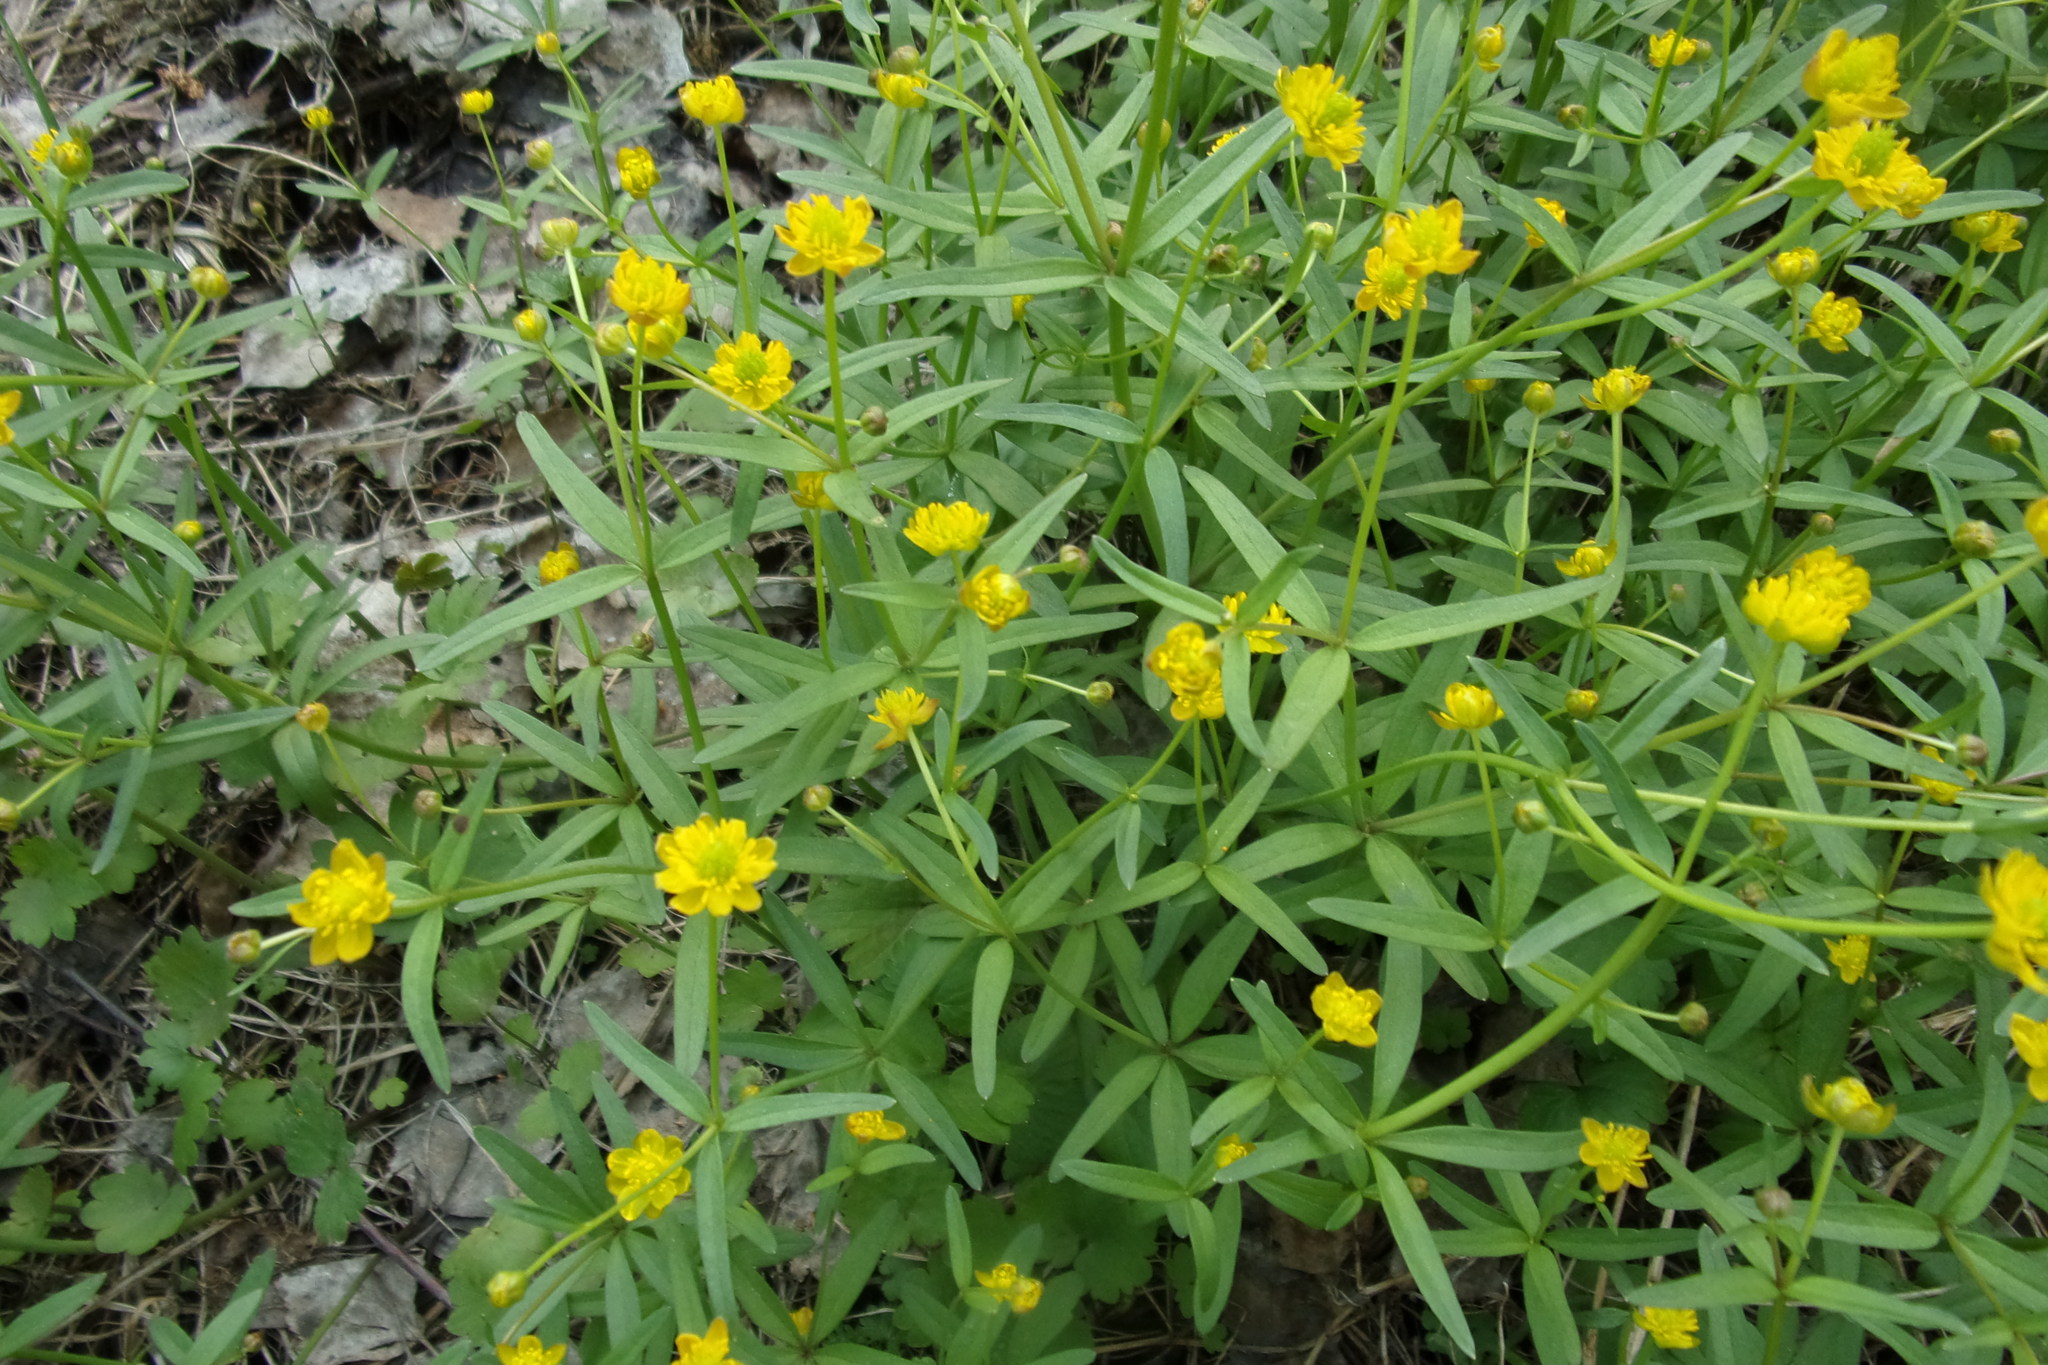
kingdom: Plantae
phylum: Tracheophyta
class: Magnoliopsida
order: Ranunculales
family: Ranunculaceae
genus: Ranunculus
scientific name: Ranunculus auricomus
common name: Goldilocks buttercup
